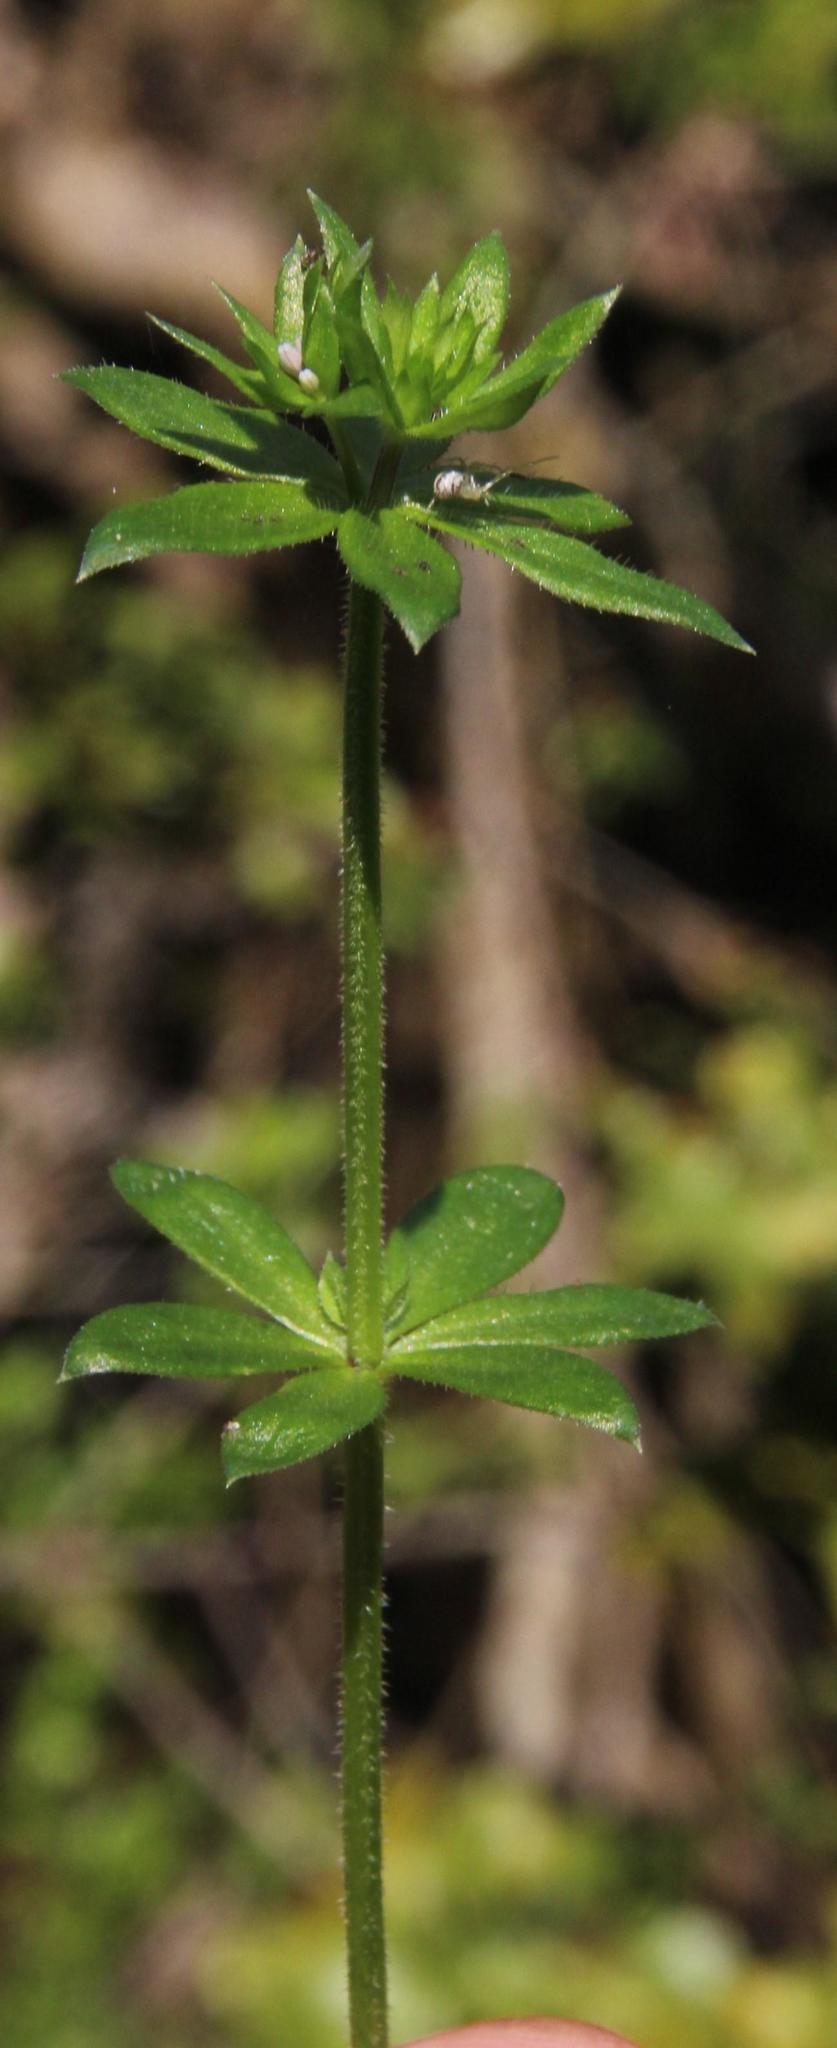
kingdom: Plantae
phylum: Tracheophyta
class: Magnoliopsida
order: Gentianales
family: Rubiaceae
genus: Sherardia
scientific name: Sherardia arvensis
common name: Field madder
